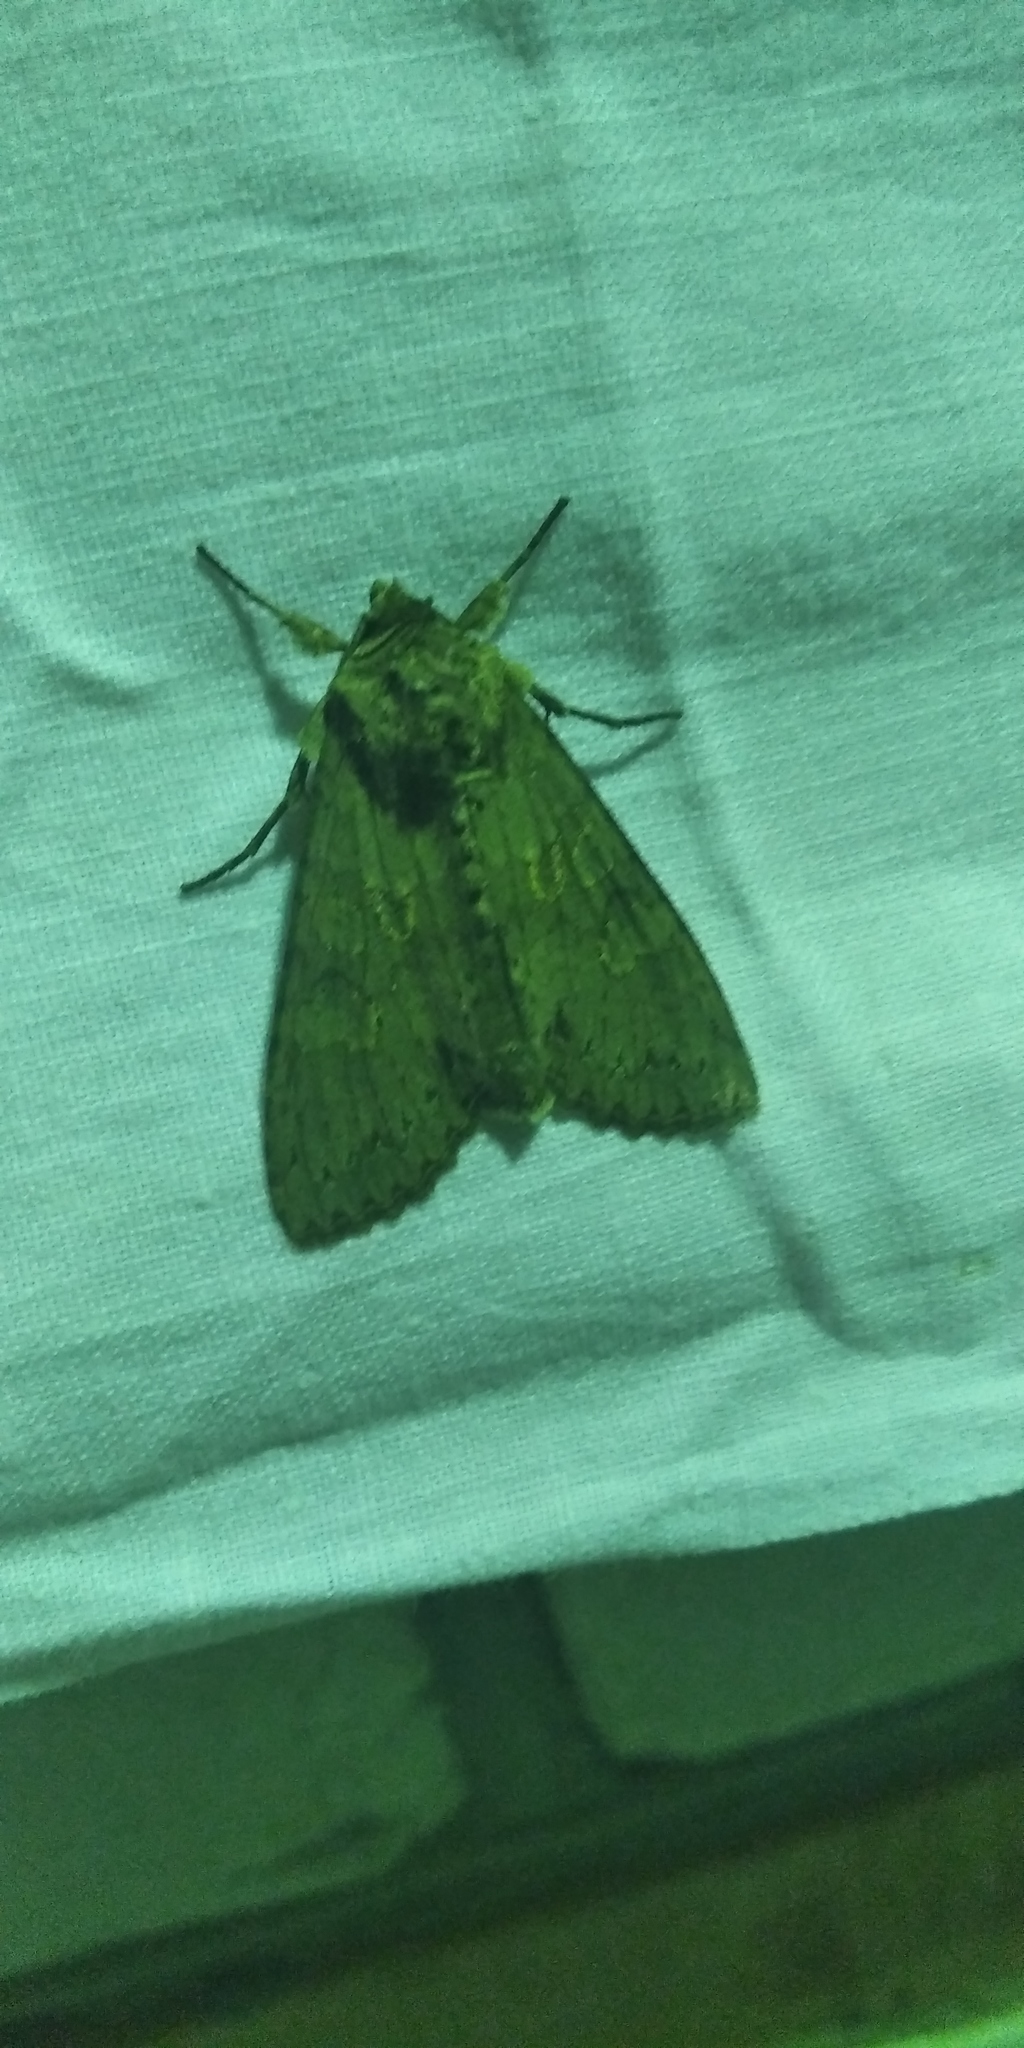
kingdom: Animalia
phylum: Arthropoda
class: Insecta
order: Lepidoptera
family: Noctuidae
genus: Polia
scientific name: Polia nebulosa
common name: Grey arches
